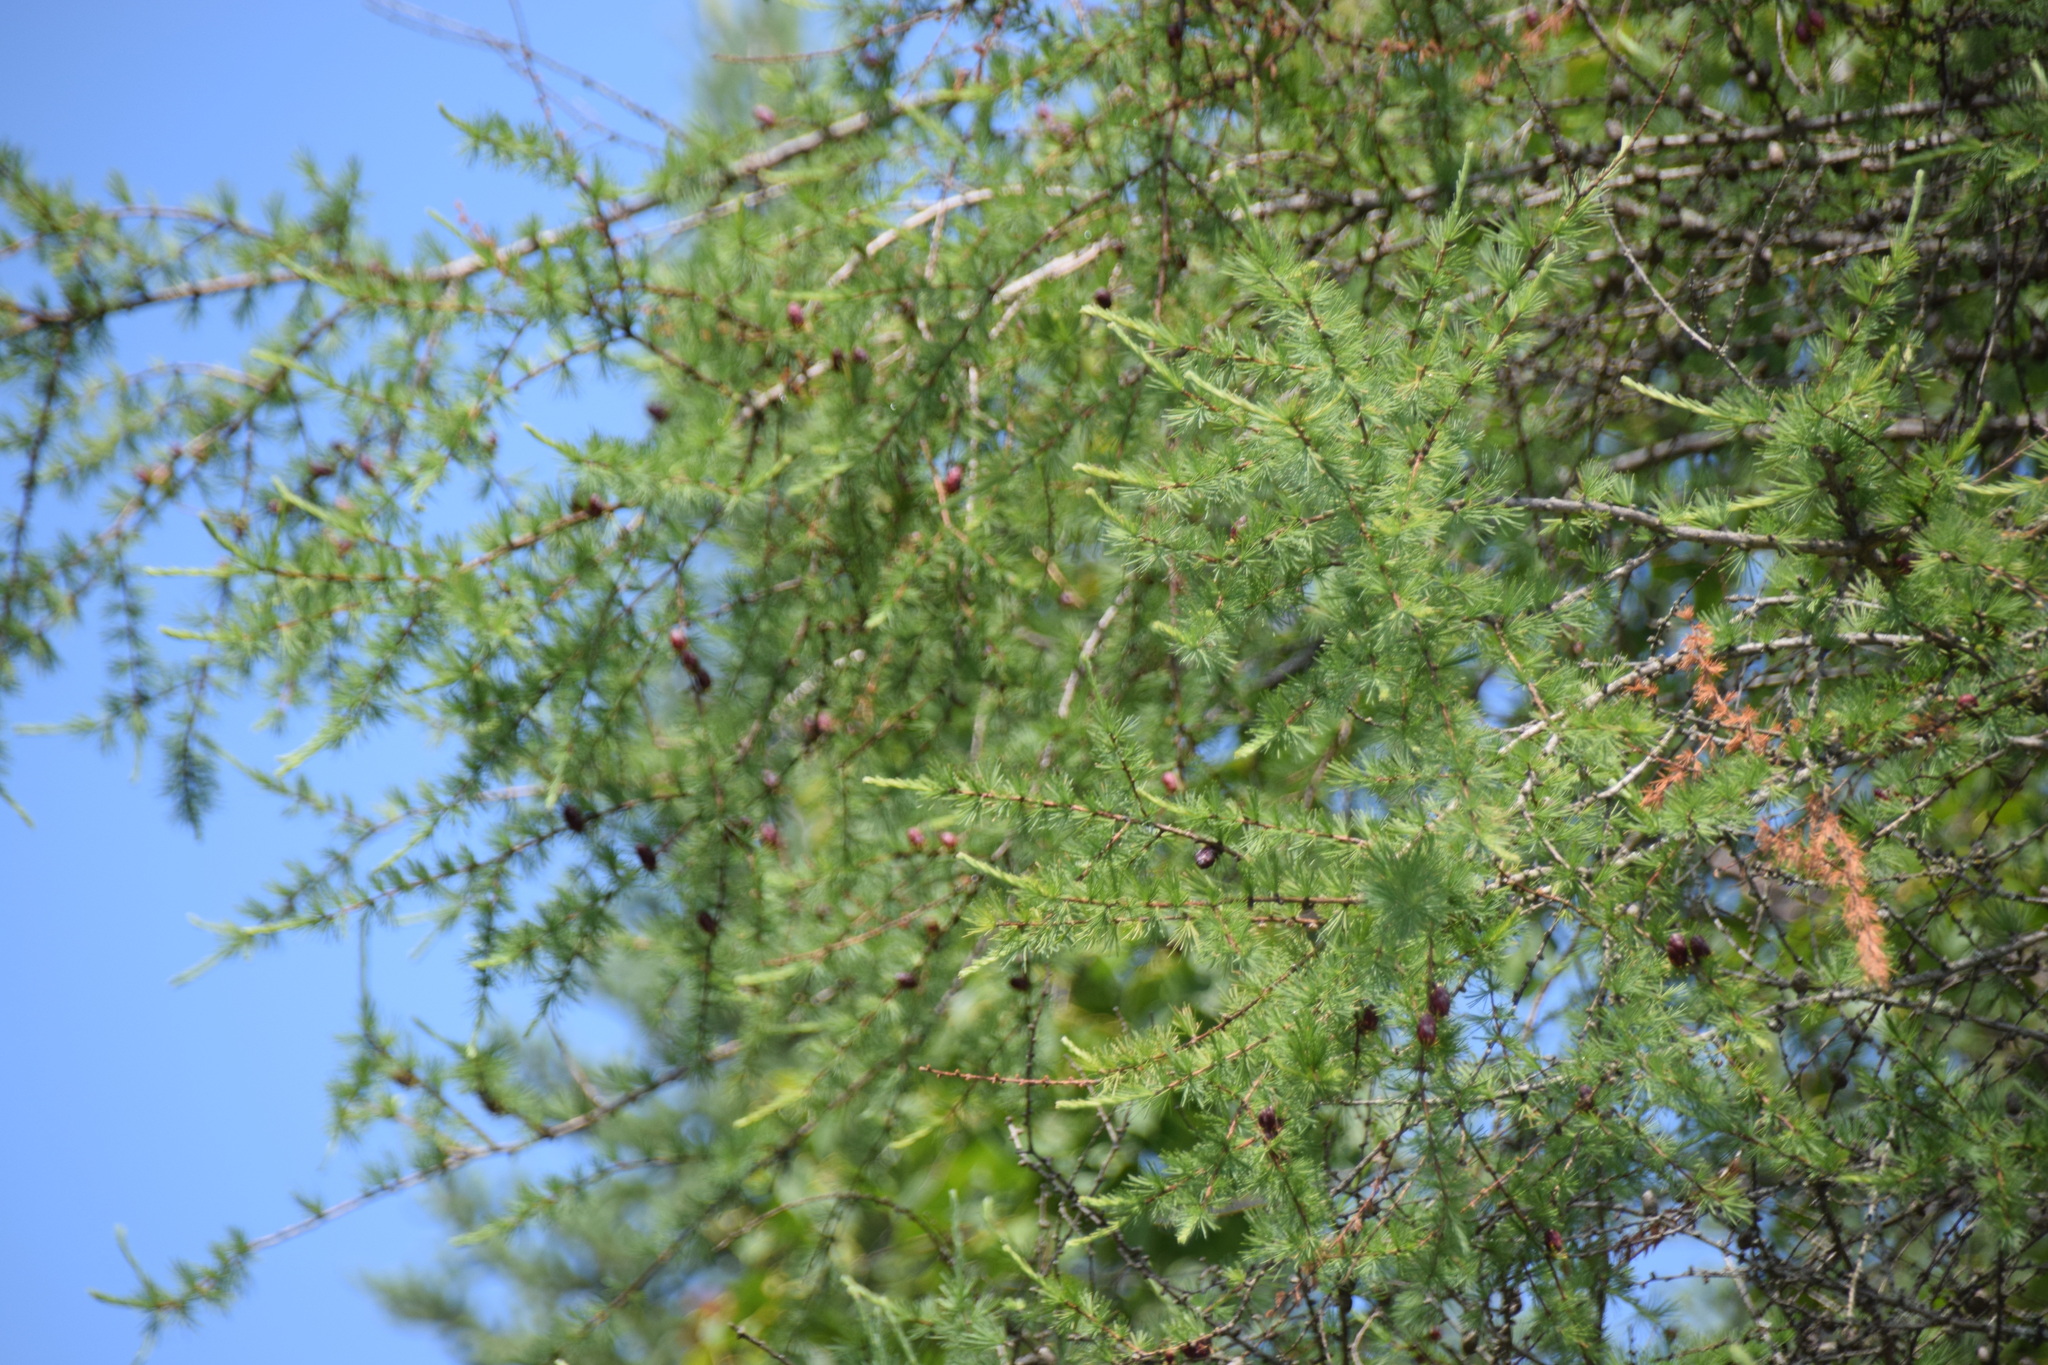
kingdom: Plantae
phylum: Tracheophyta
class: Pinopsida
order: Pinales
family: Pinaceae
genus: Larix
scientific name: Larix laricina
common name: American larch
